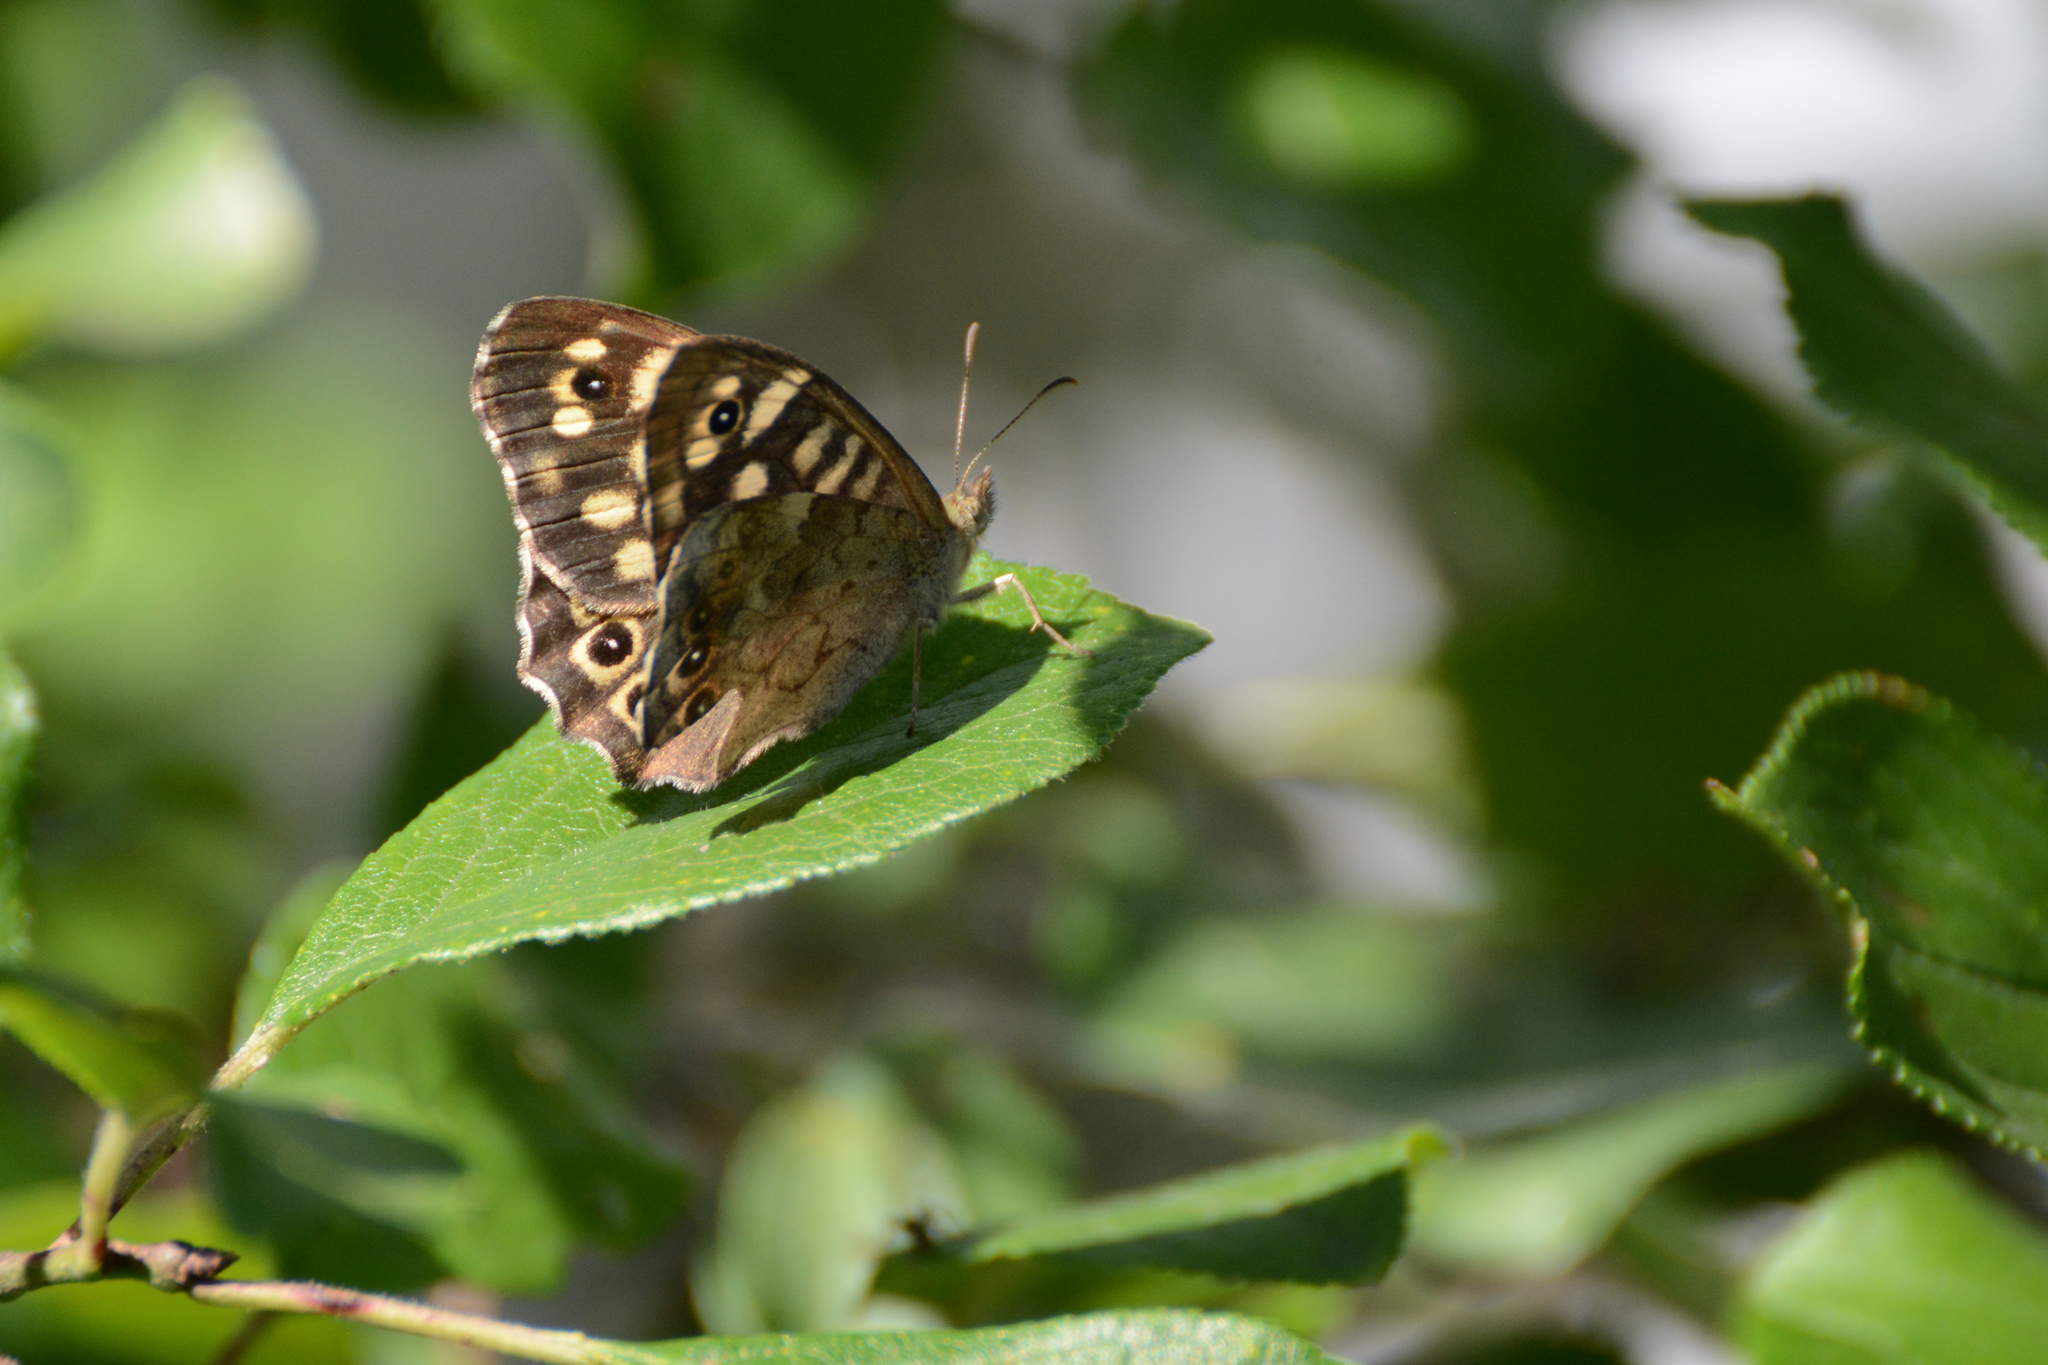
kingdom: Animalia
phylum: Arthropoda
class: Insecta
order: Lepidoptera
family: Nymphalidae
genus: Pararge
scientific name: Pararge aegeria
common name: Speckled wood
